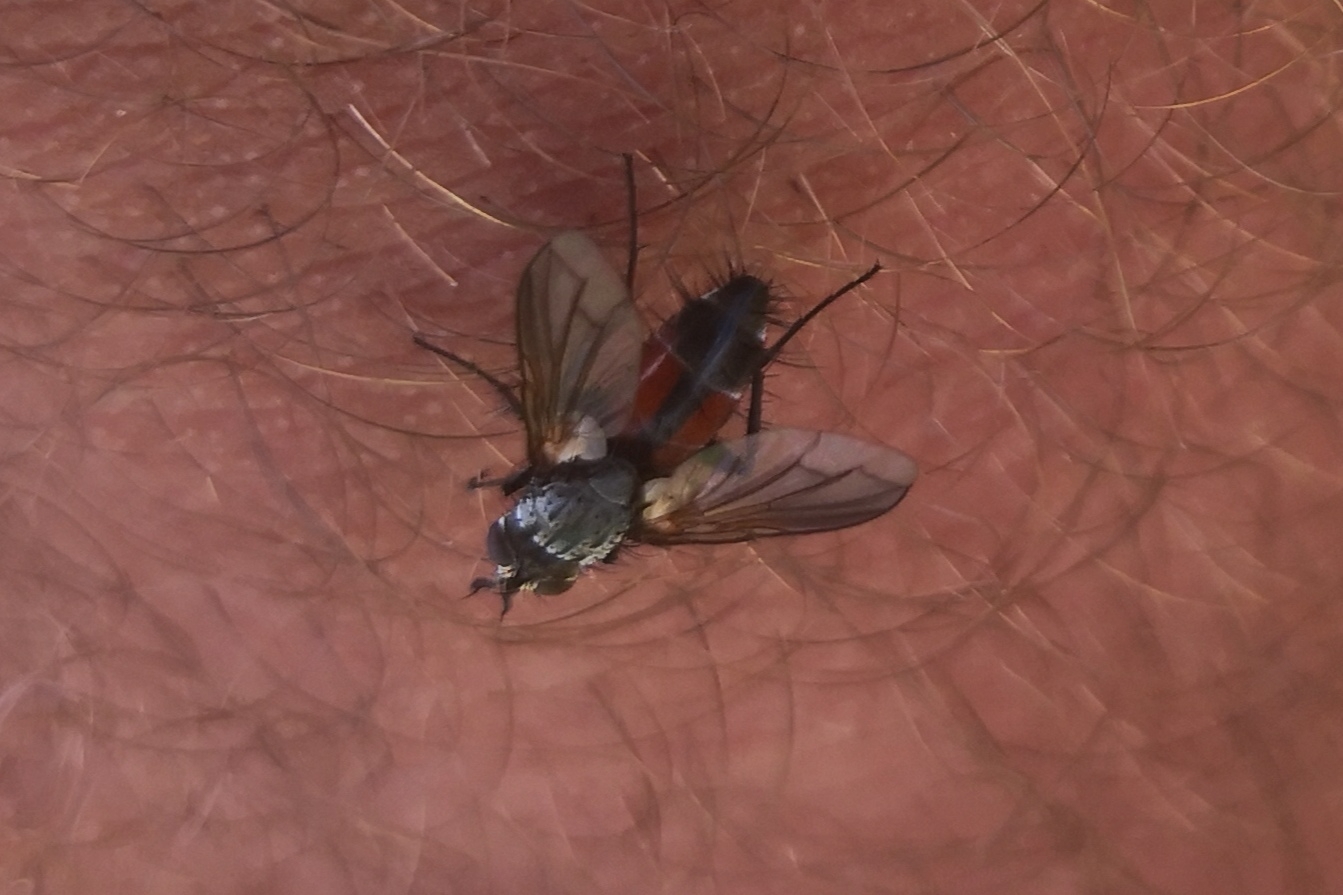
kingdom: Animalia
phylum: Arthropoda
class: Insecta
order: Diptera
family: Tachinidae
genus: Eriothrix
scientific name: Eriothrix rufomaculatus
